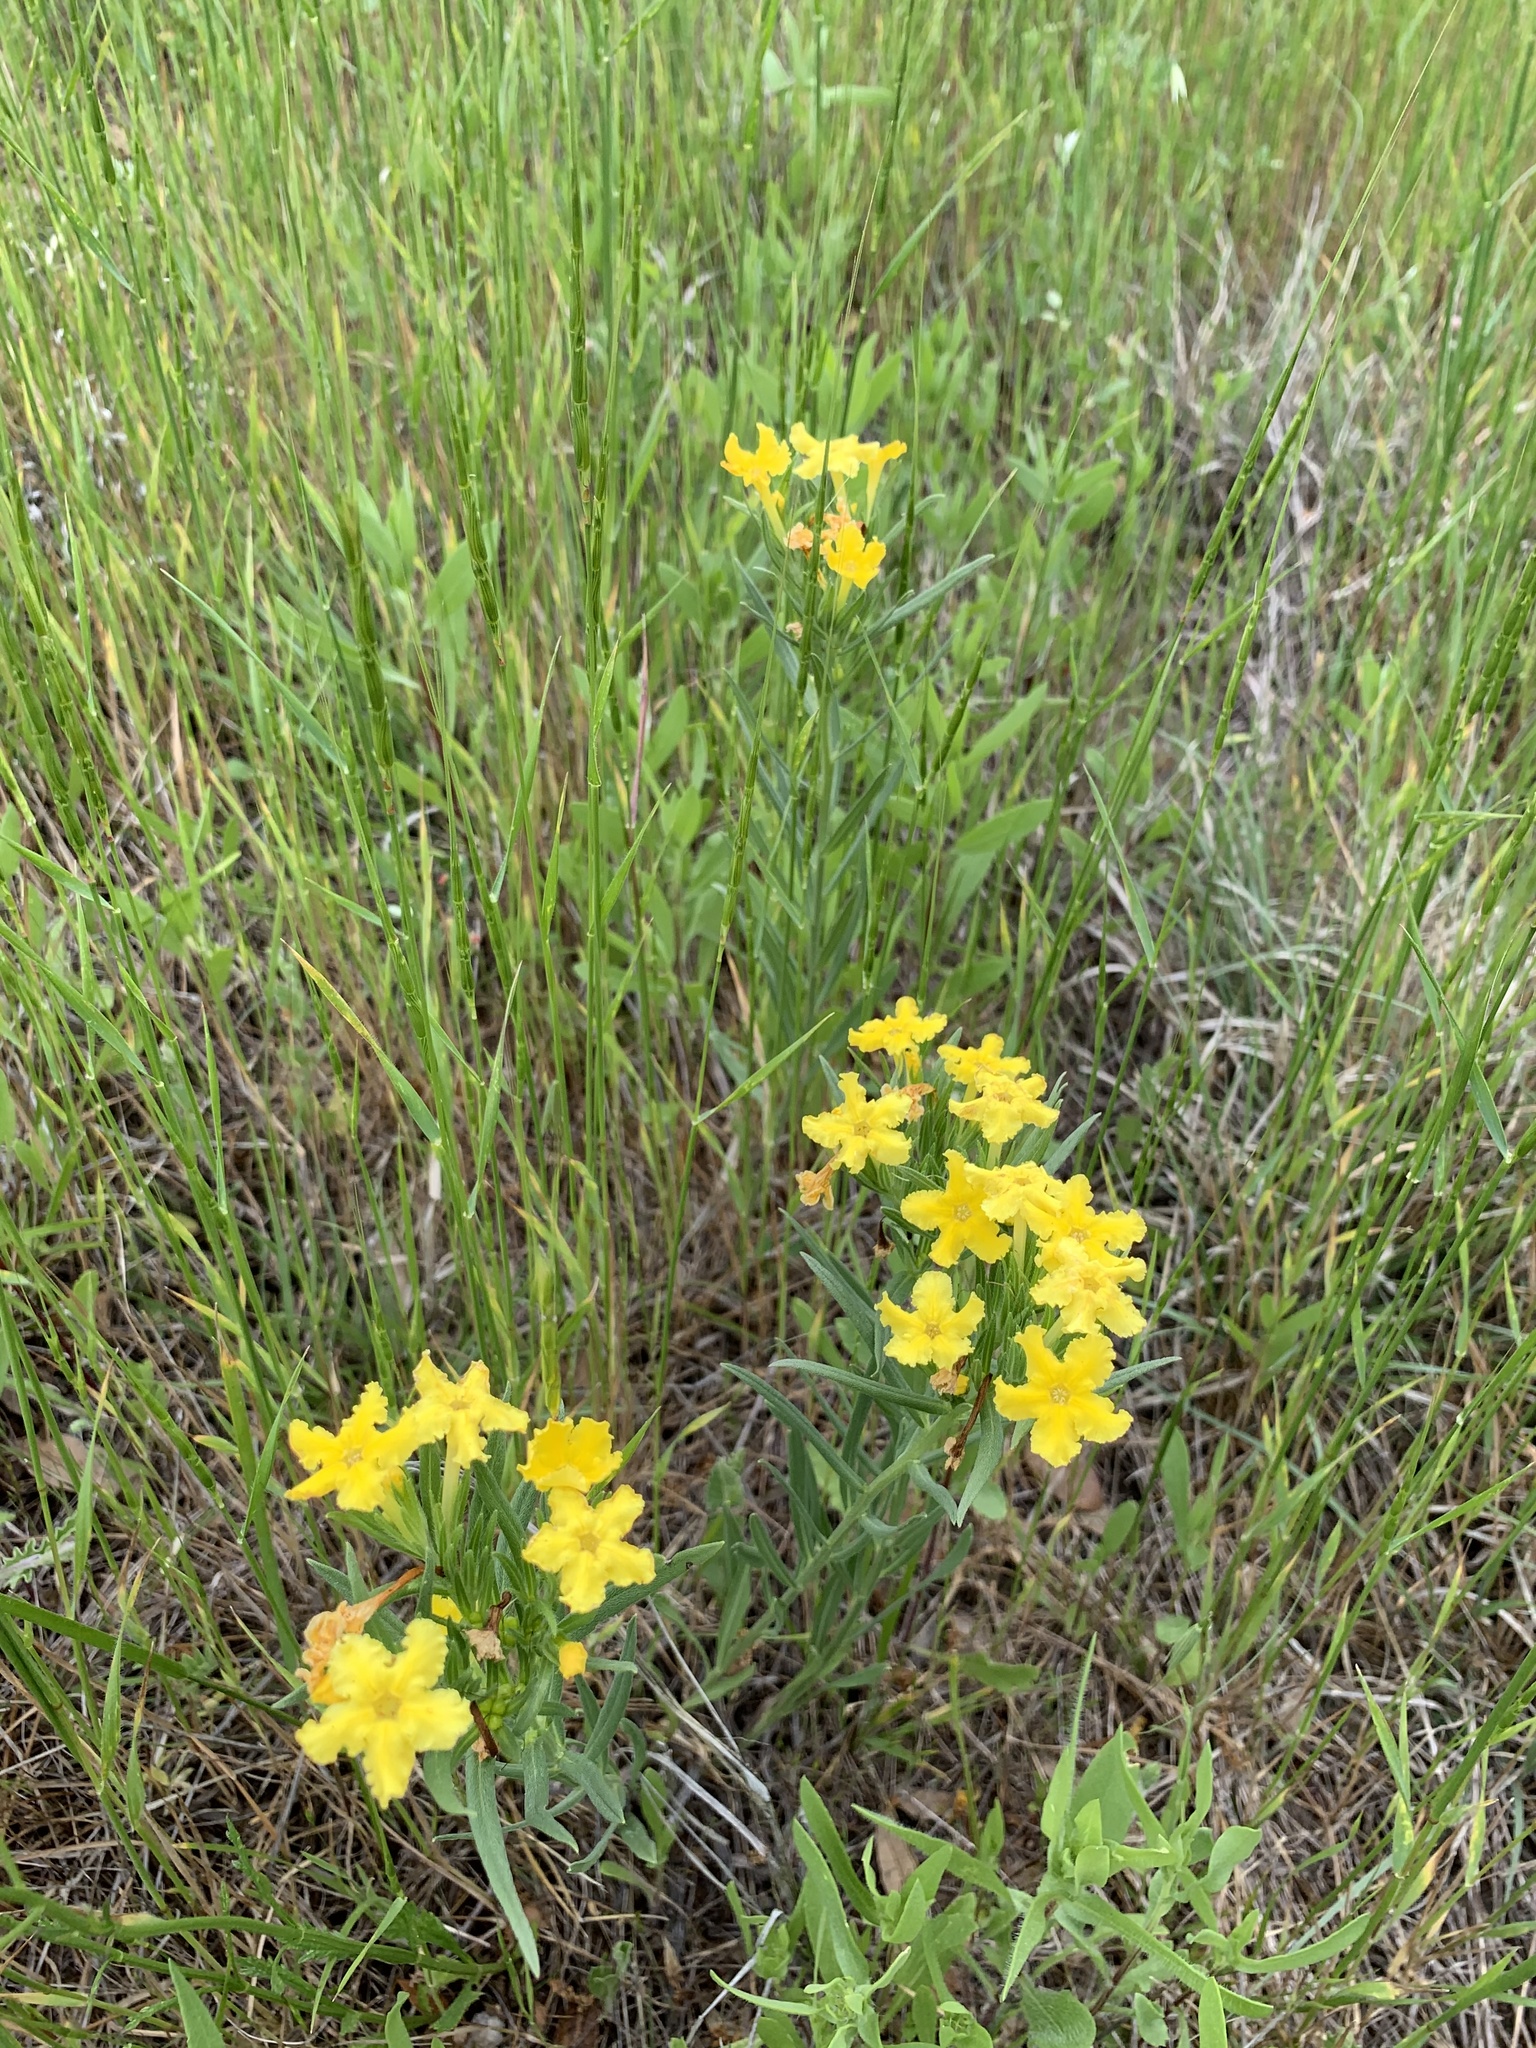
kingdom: Plantae
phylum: Tracheophyta
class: Magnoliopsida
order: Boraginales
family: Boraginaceae
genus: Lithospermum
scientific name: Lithospermum incisum
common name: Fringed gromwell
